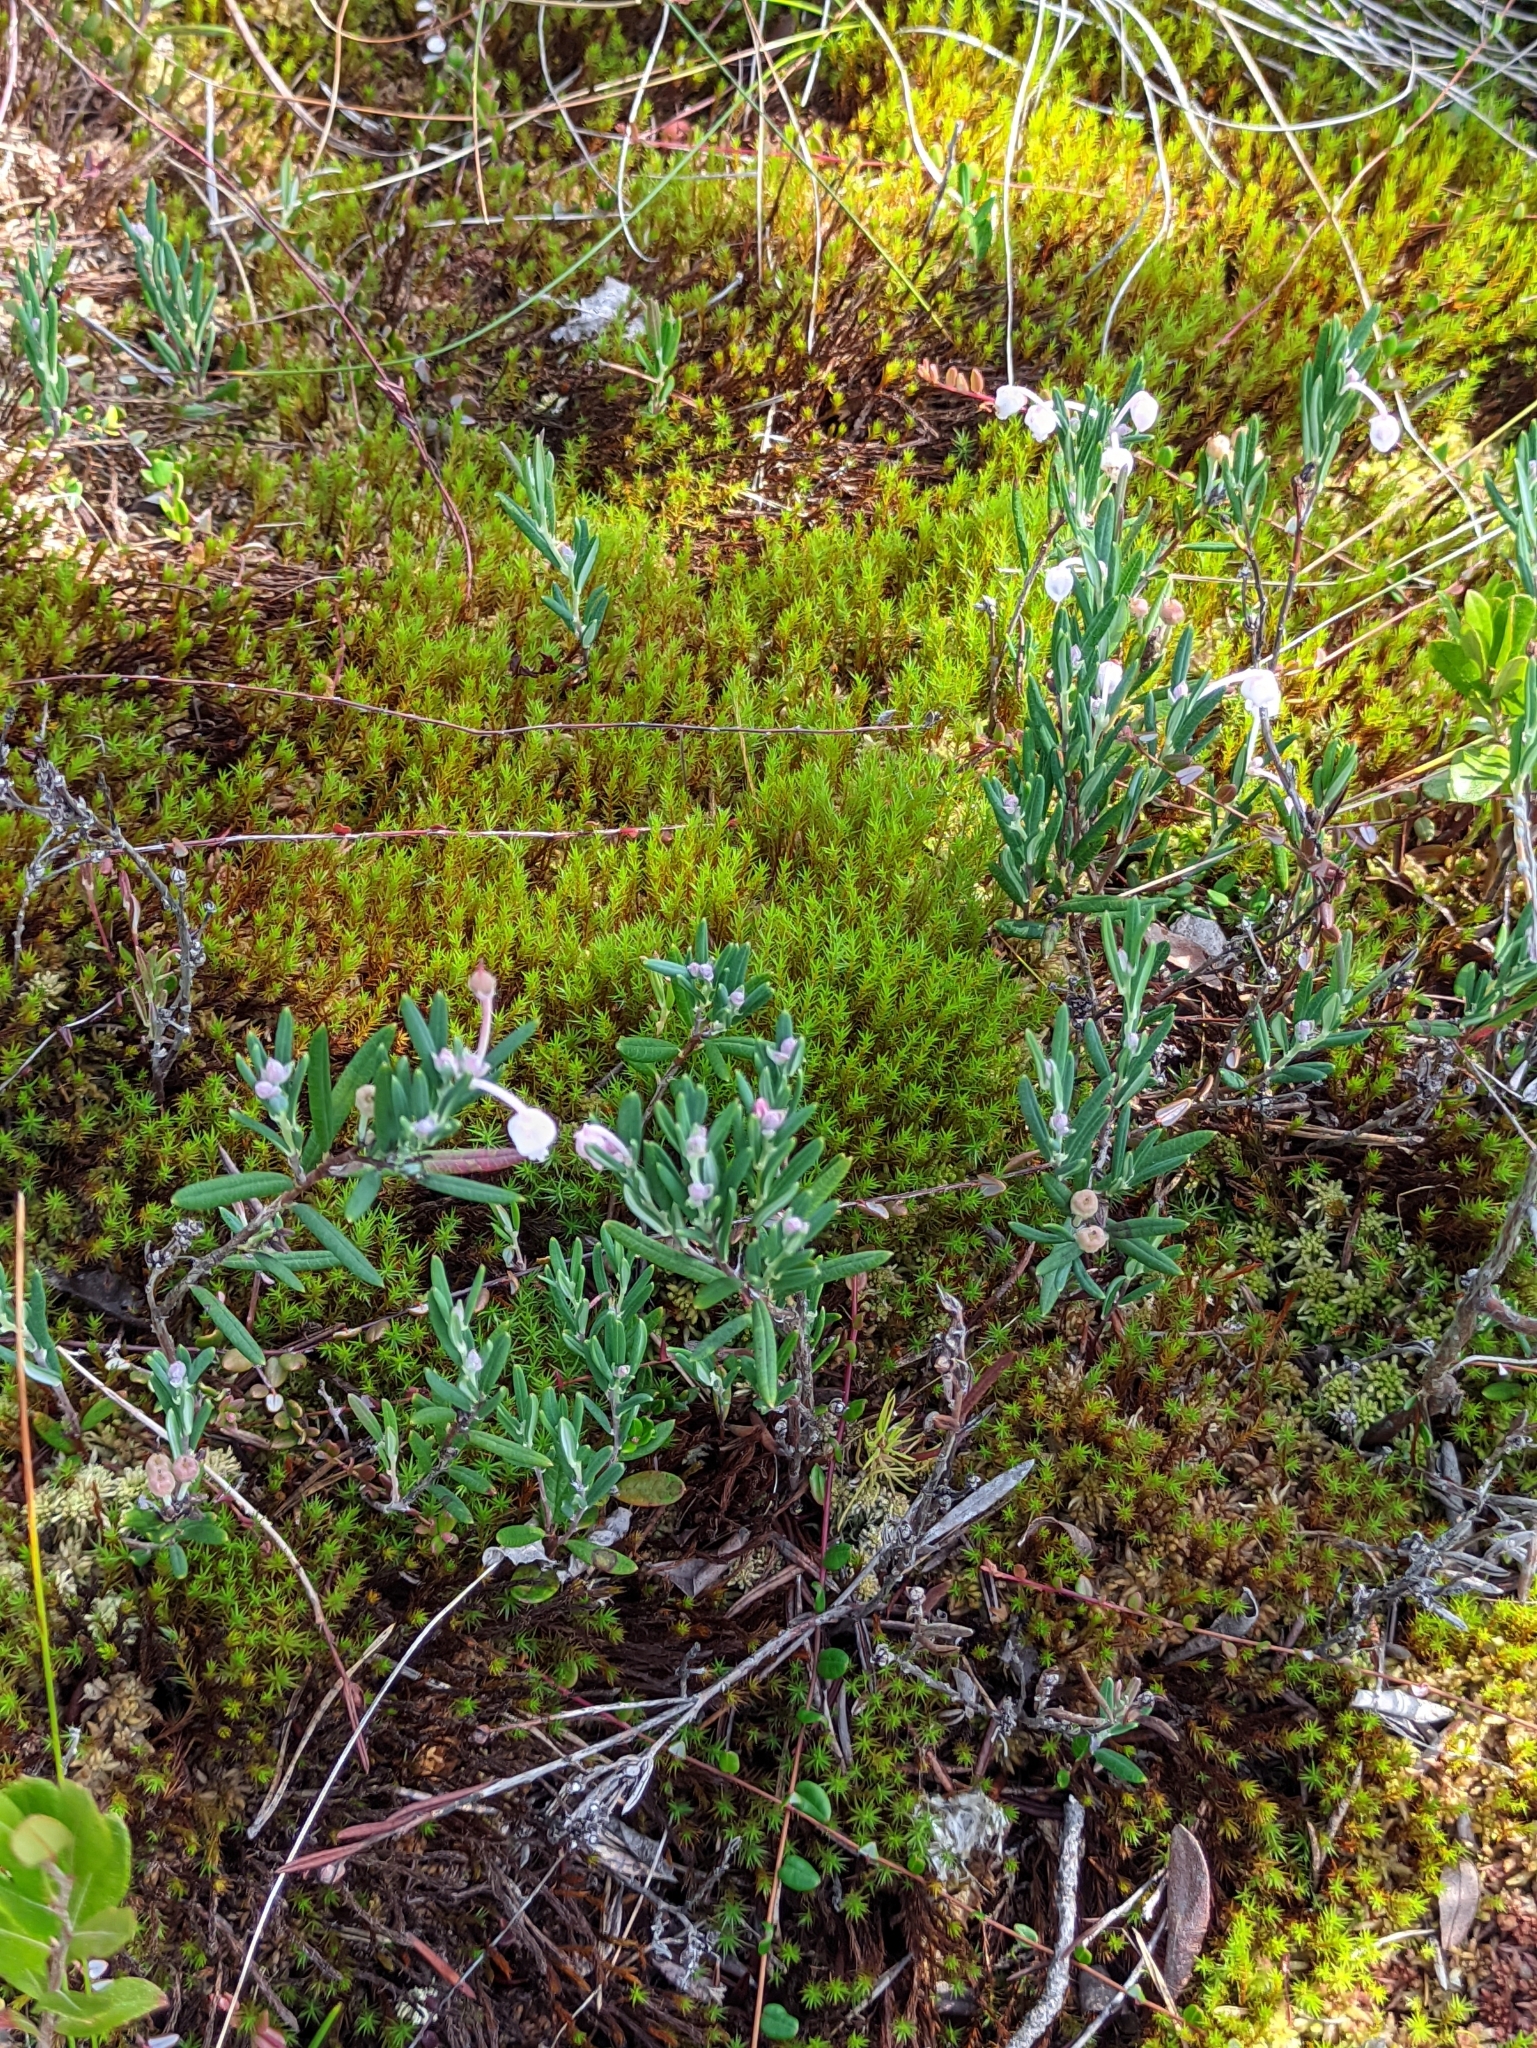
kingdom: Plantae
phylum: Tracheophyta
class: Magnoliopsida
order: Ericales
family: Ericaceae
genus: Andromeda
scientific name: Andromeda polifolia
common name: Bog-rosemary
